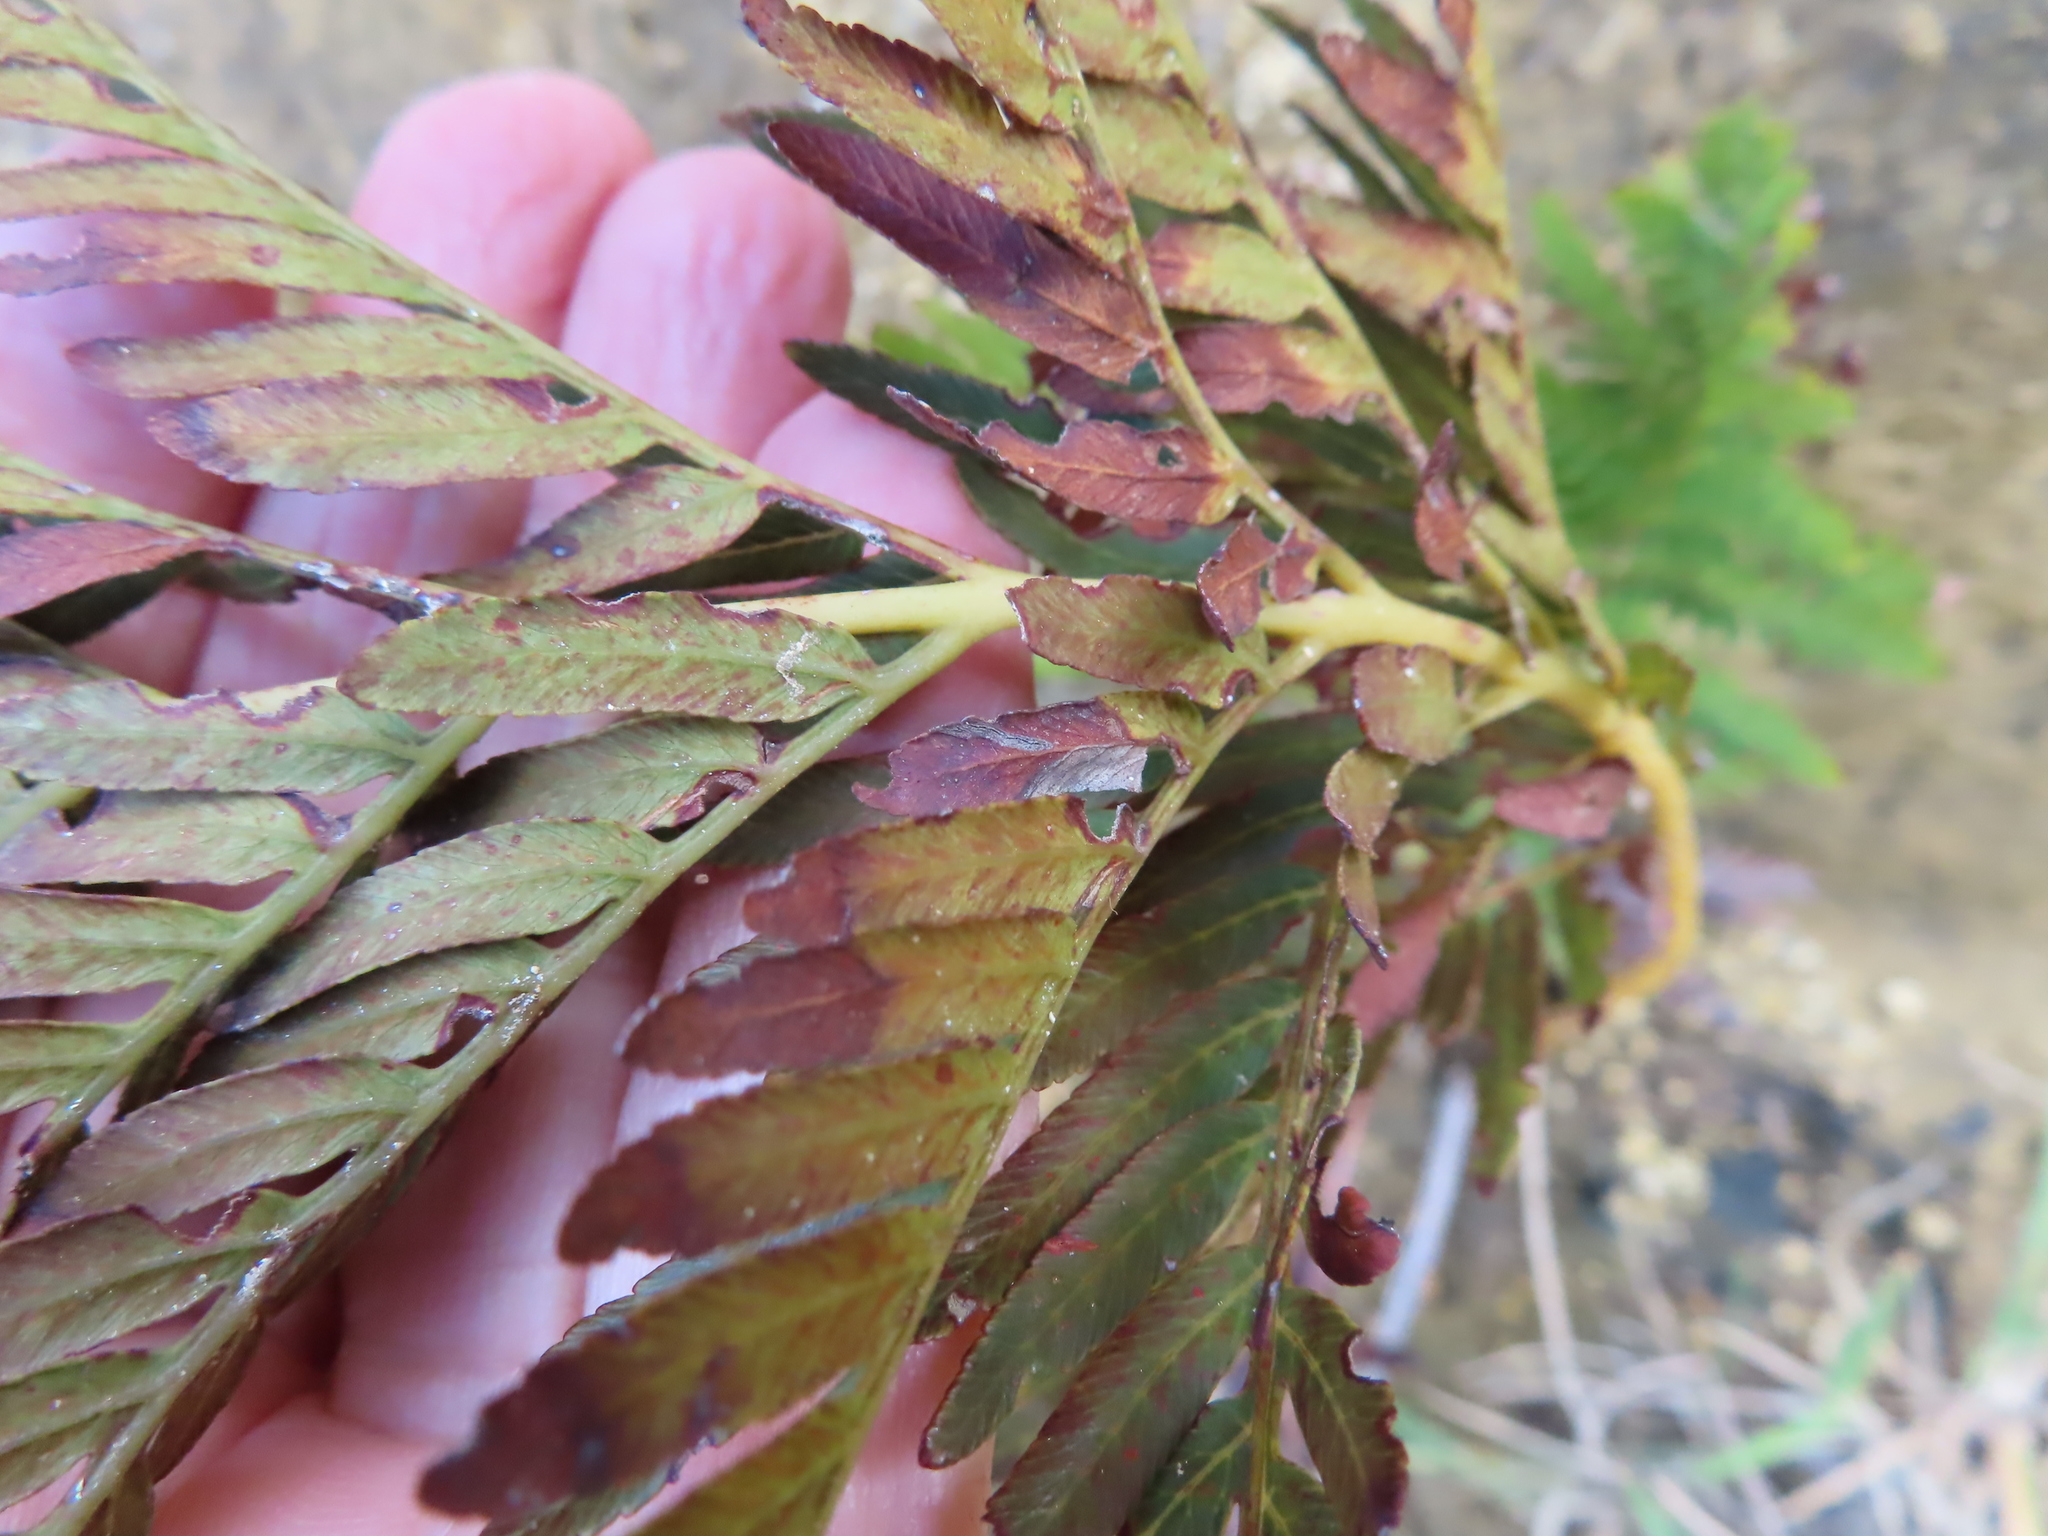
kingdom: Plantae
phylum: Tracheophyta
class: Polypodiopsida
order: Osmundales
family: Osmundaceae
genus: Todea
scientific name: Todea barbara
